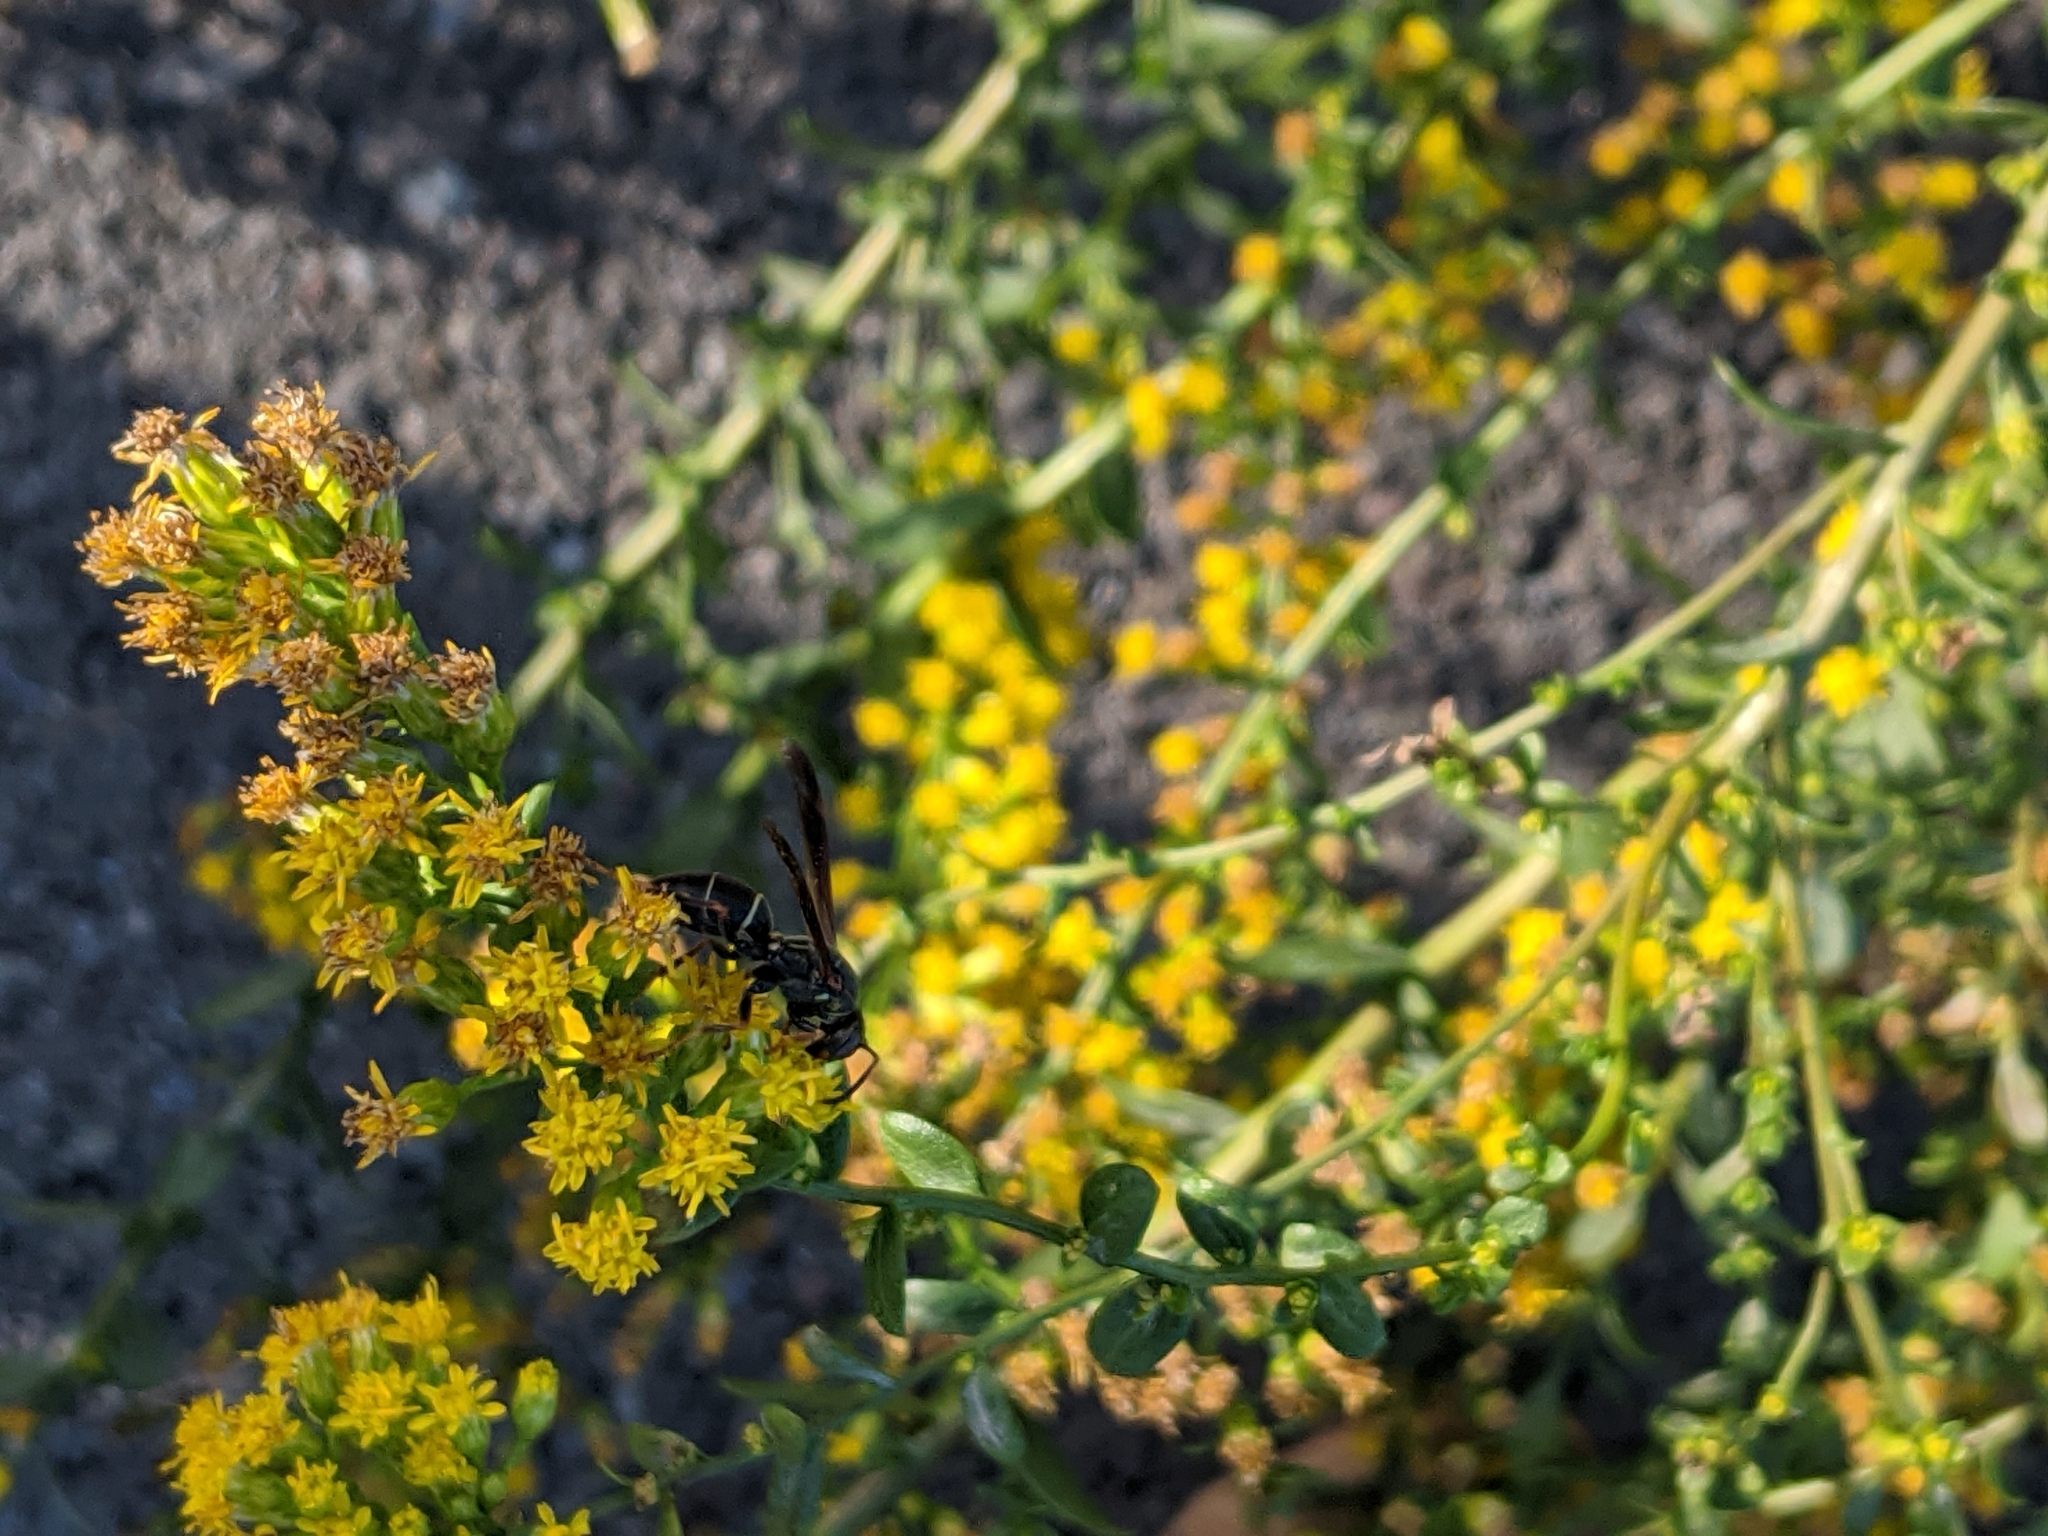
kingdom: Animalia
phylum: Arthropoda
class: Insecta
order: Hymenoptera
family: Eumenidae
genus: Polistes
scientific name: Polistes fuscatus
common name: Dark paper wasp
